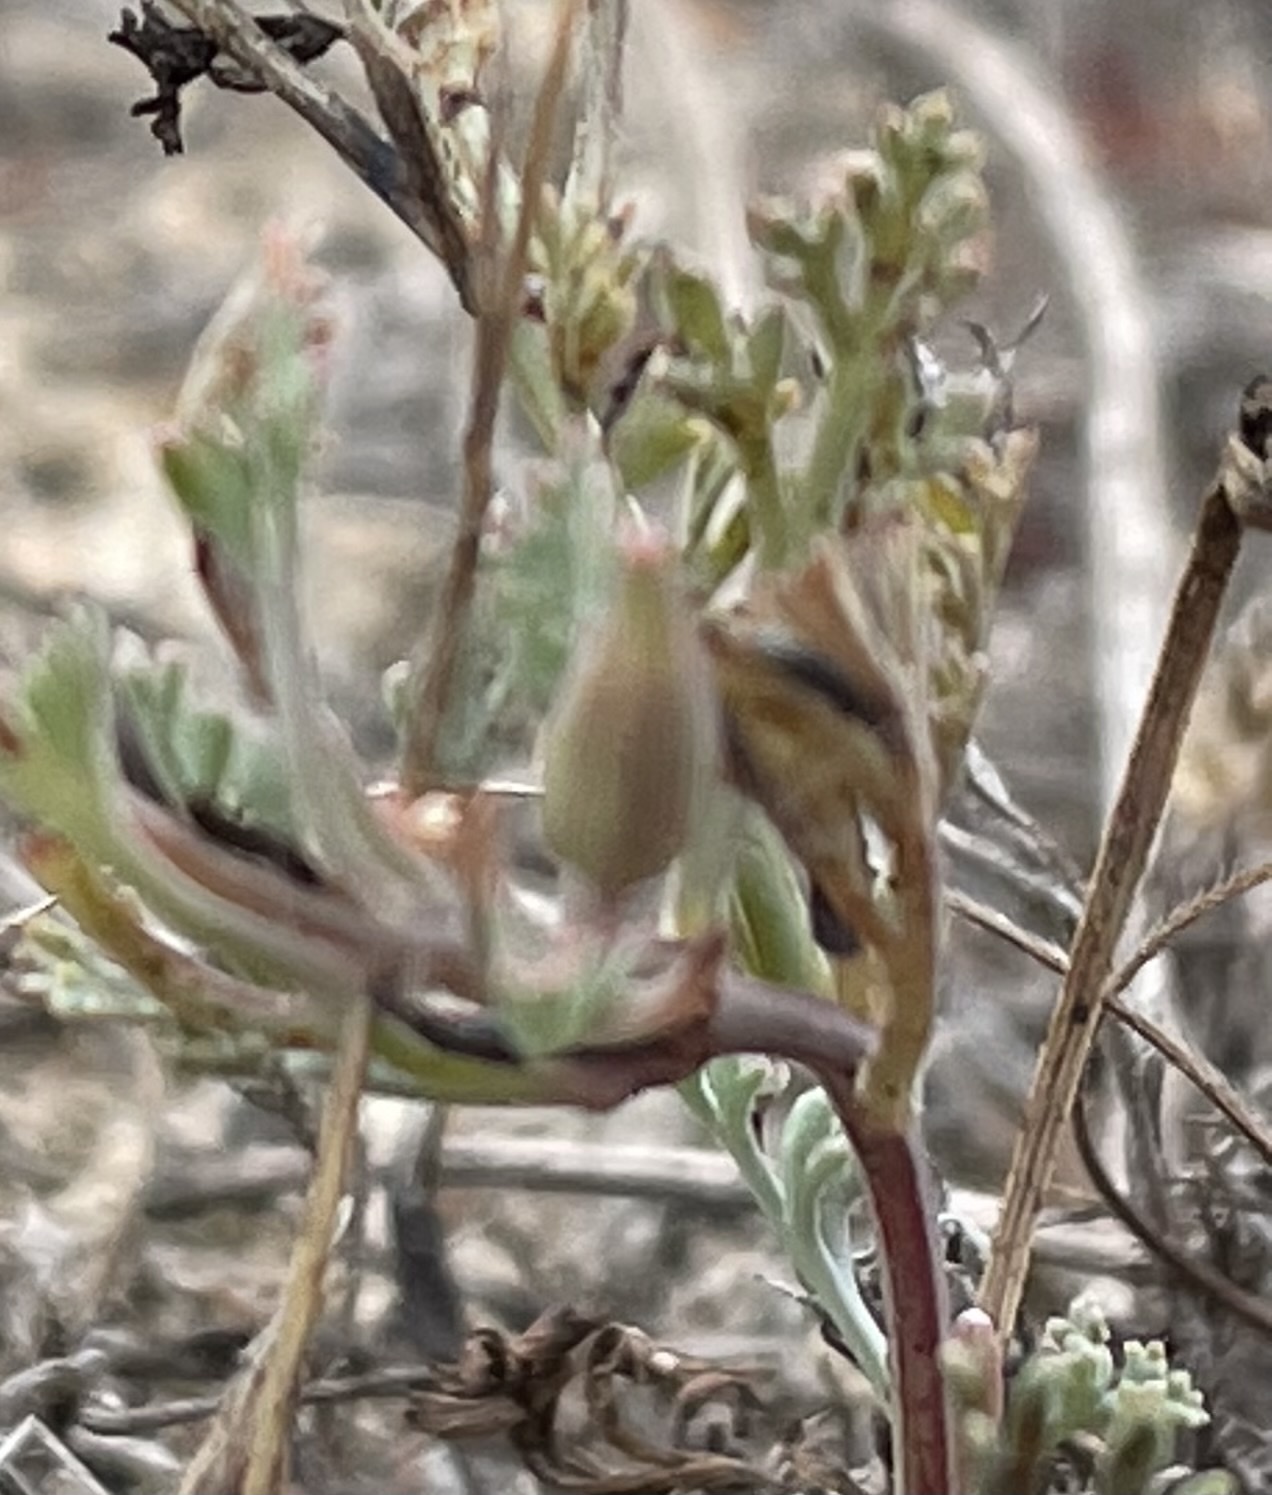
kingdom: Plantae
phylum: Tracheophyta
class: Magnoliopsida
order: Ranunculales
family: Papaveraceae
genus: Eschscholzia
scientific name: Eschscholzia californica
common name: California poppy
